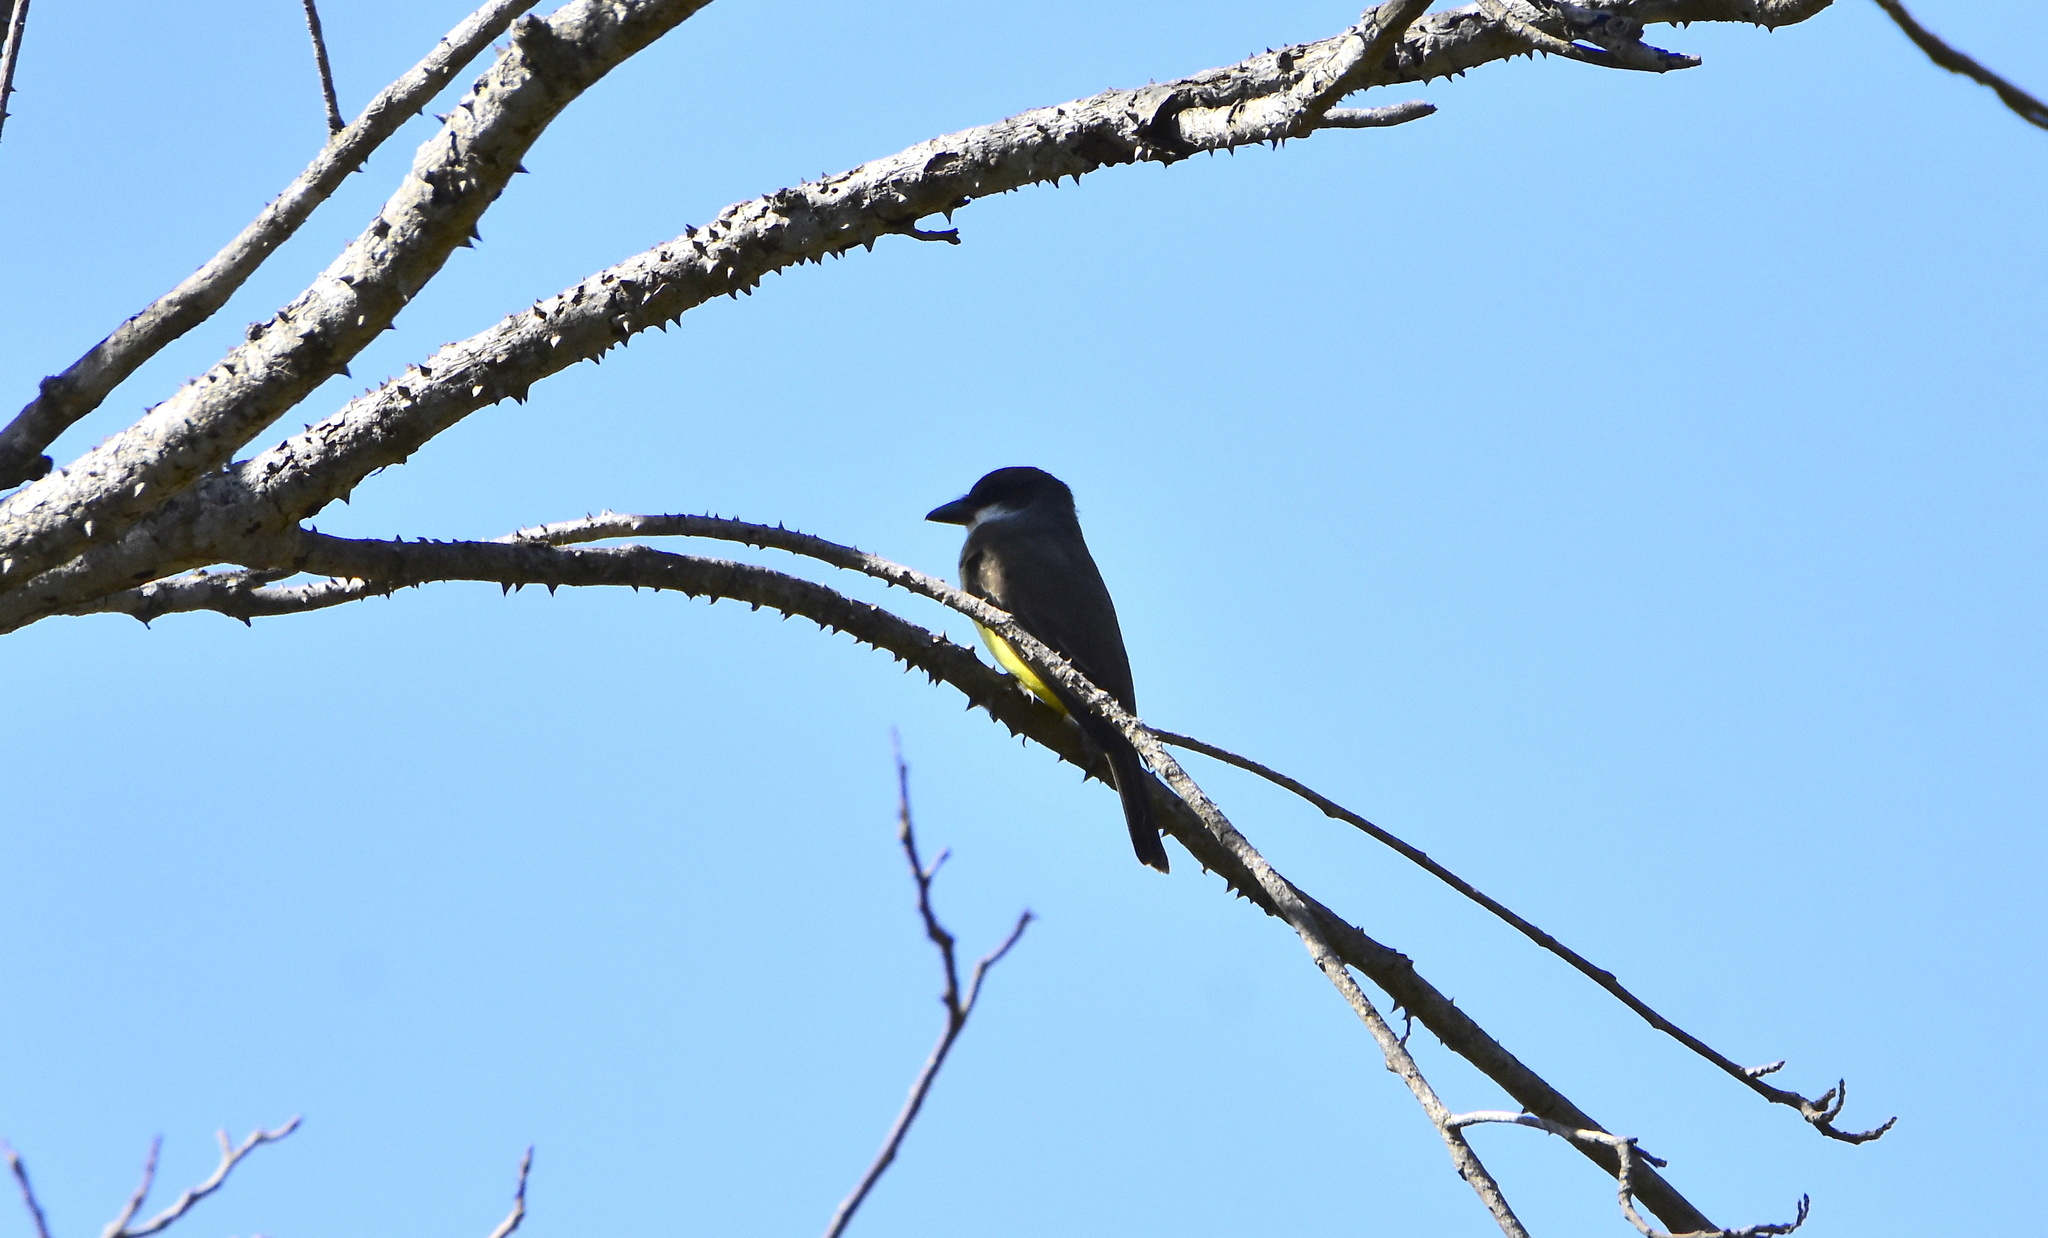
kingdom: Animalia
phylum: Chordata
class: Aves
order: Passeriformes
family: Tyrannidae
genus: Tyrannus
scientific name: Tyrannus crassirostris
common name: Thick-billed kingbird
